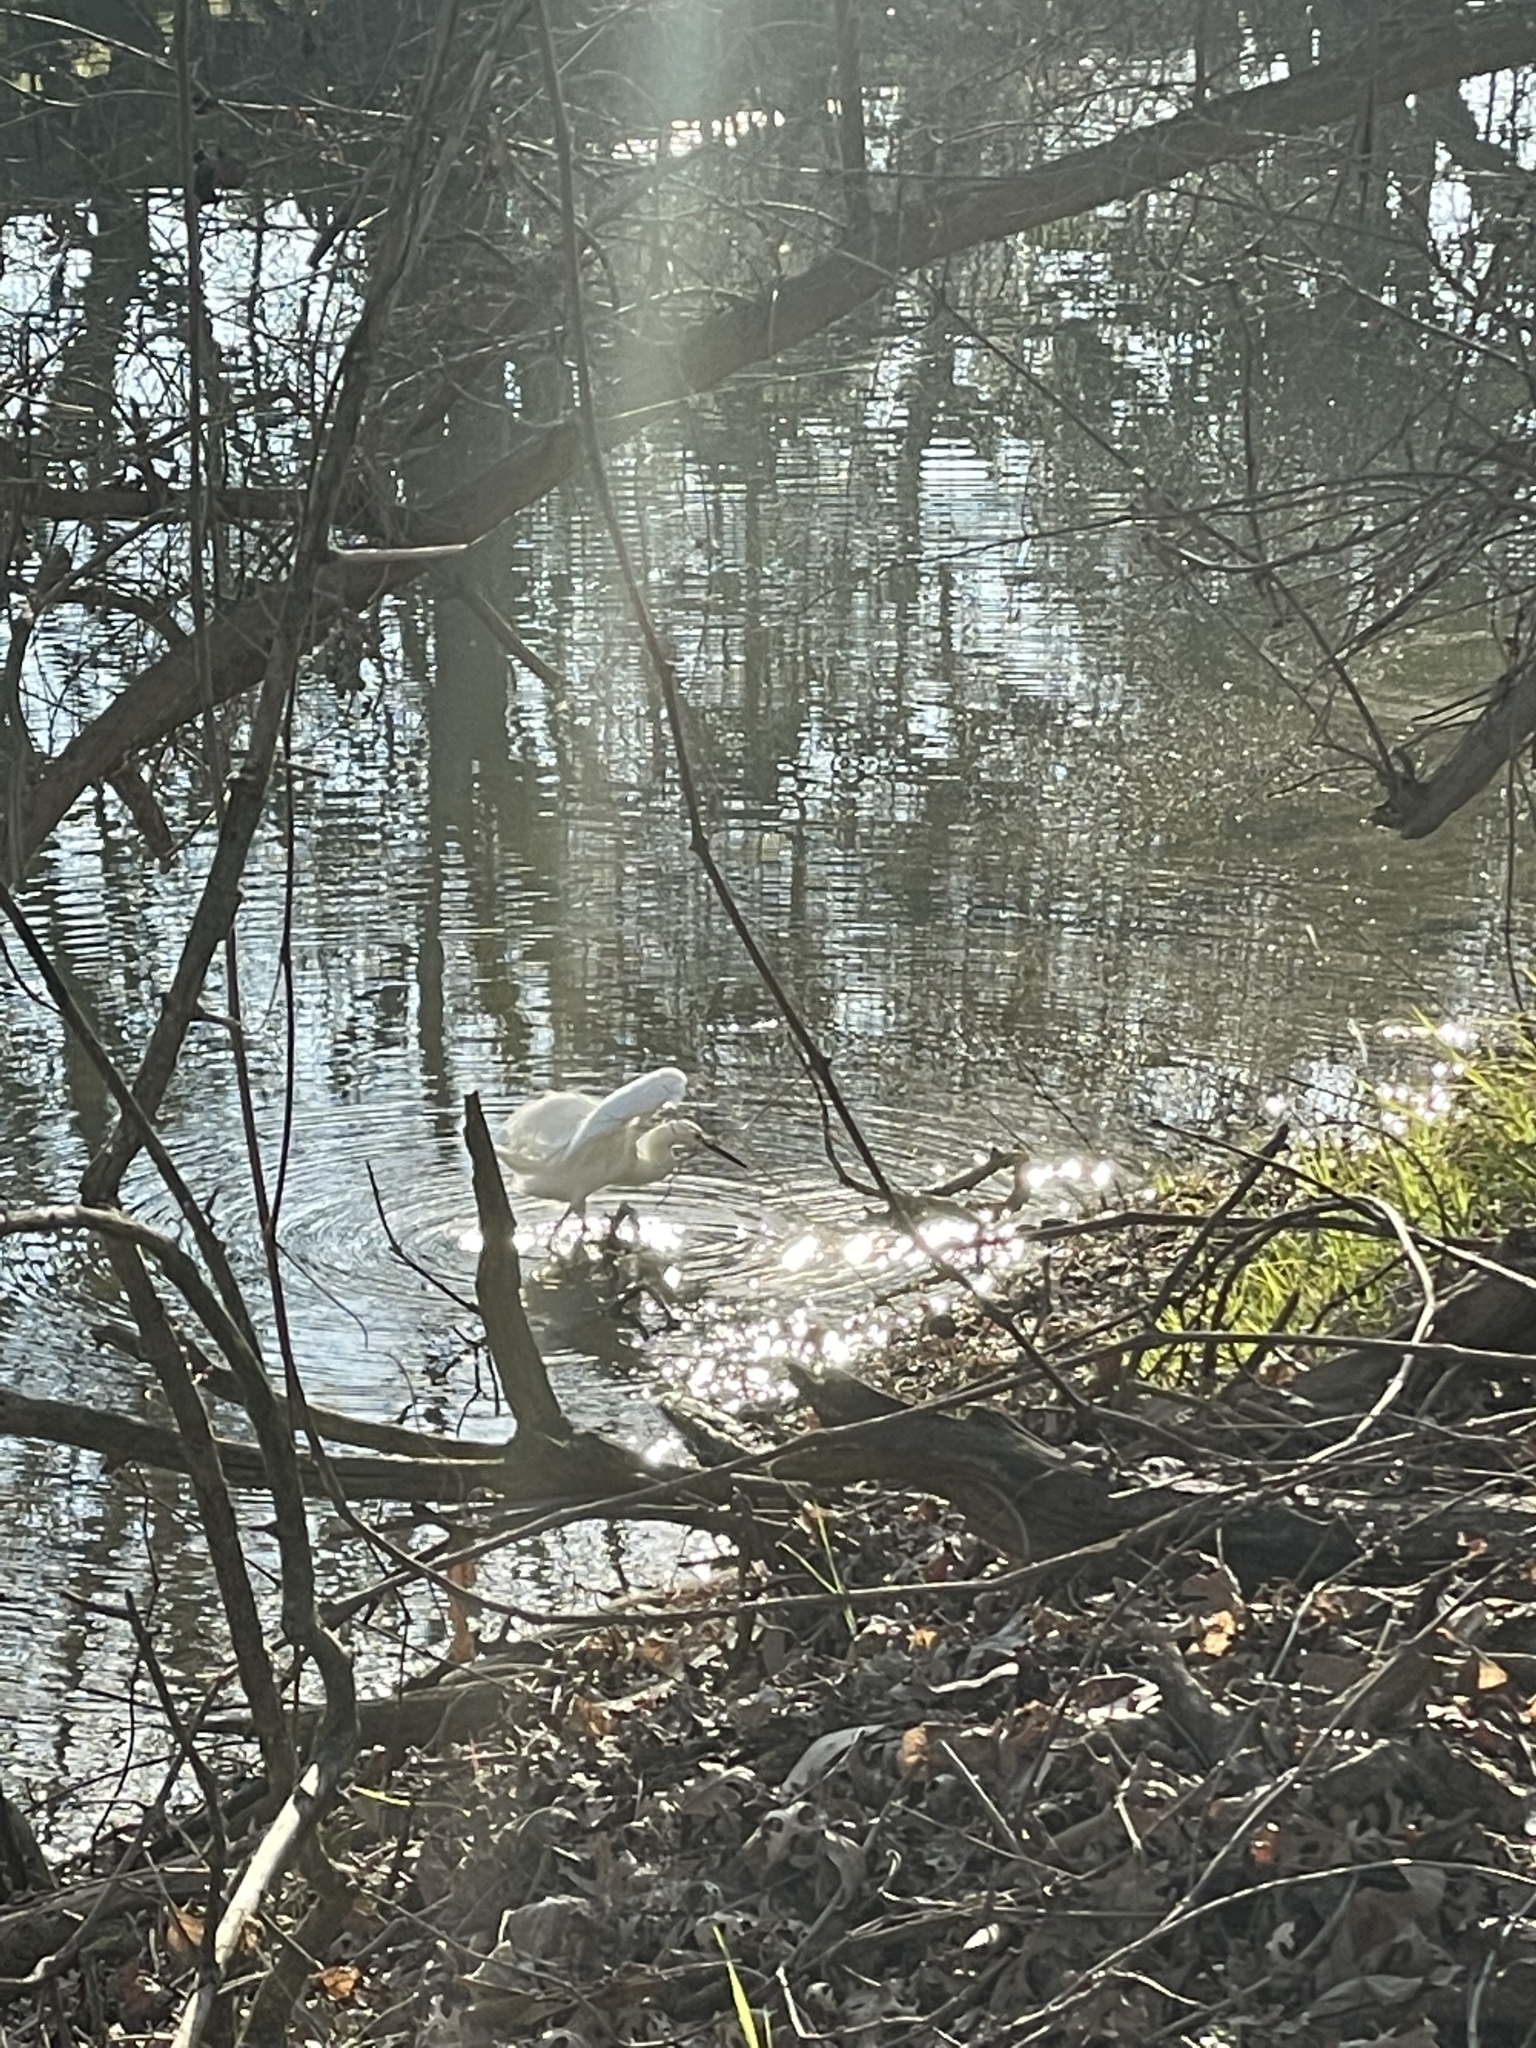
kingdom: Animalia
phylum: Chordata
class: Aves
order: Pelecaniformes
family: Ardeidae
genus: Egretta
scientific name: Egretta thula
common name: Snowy egret
